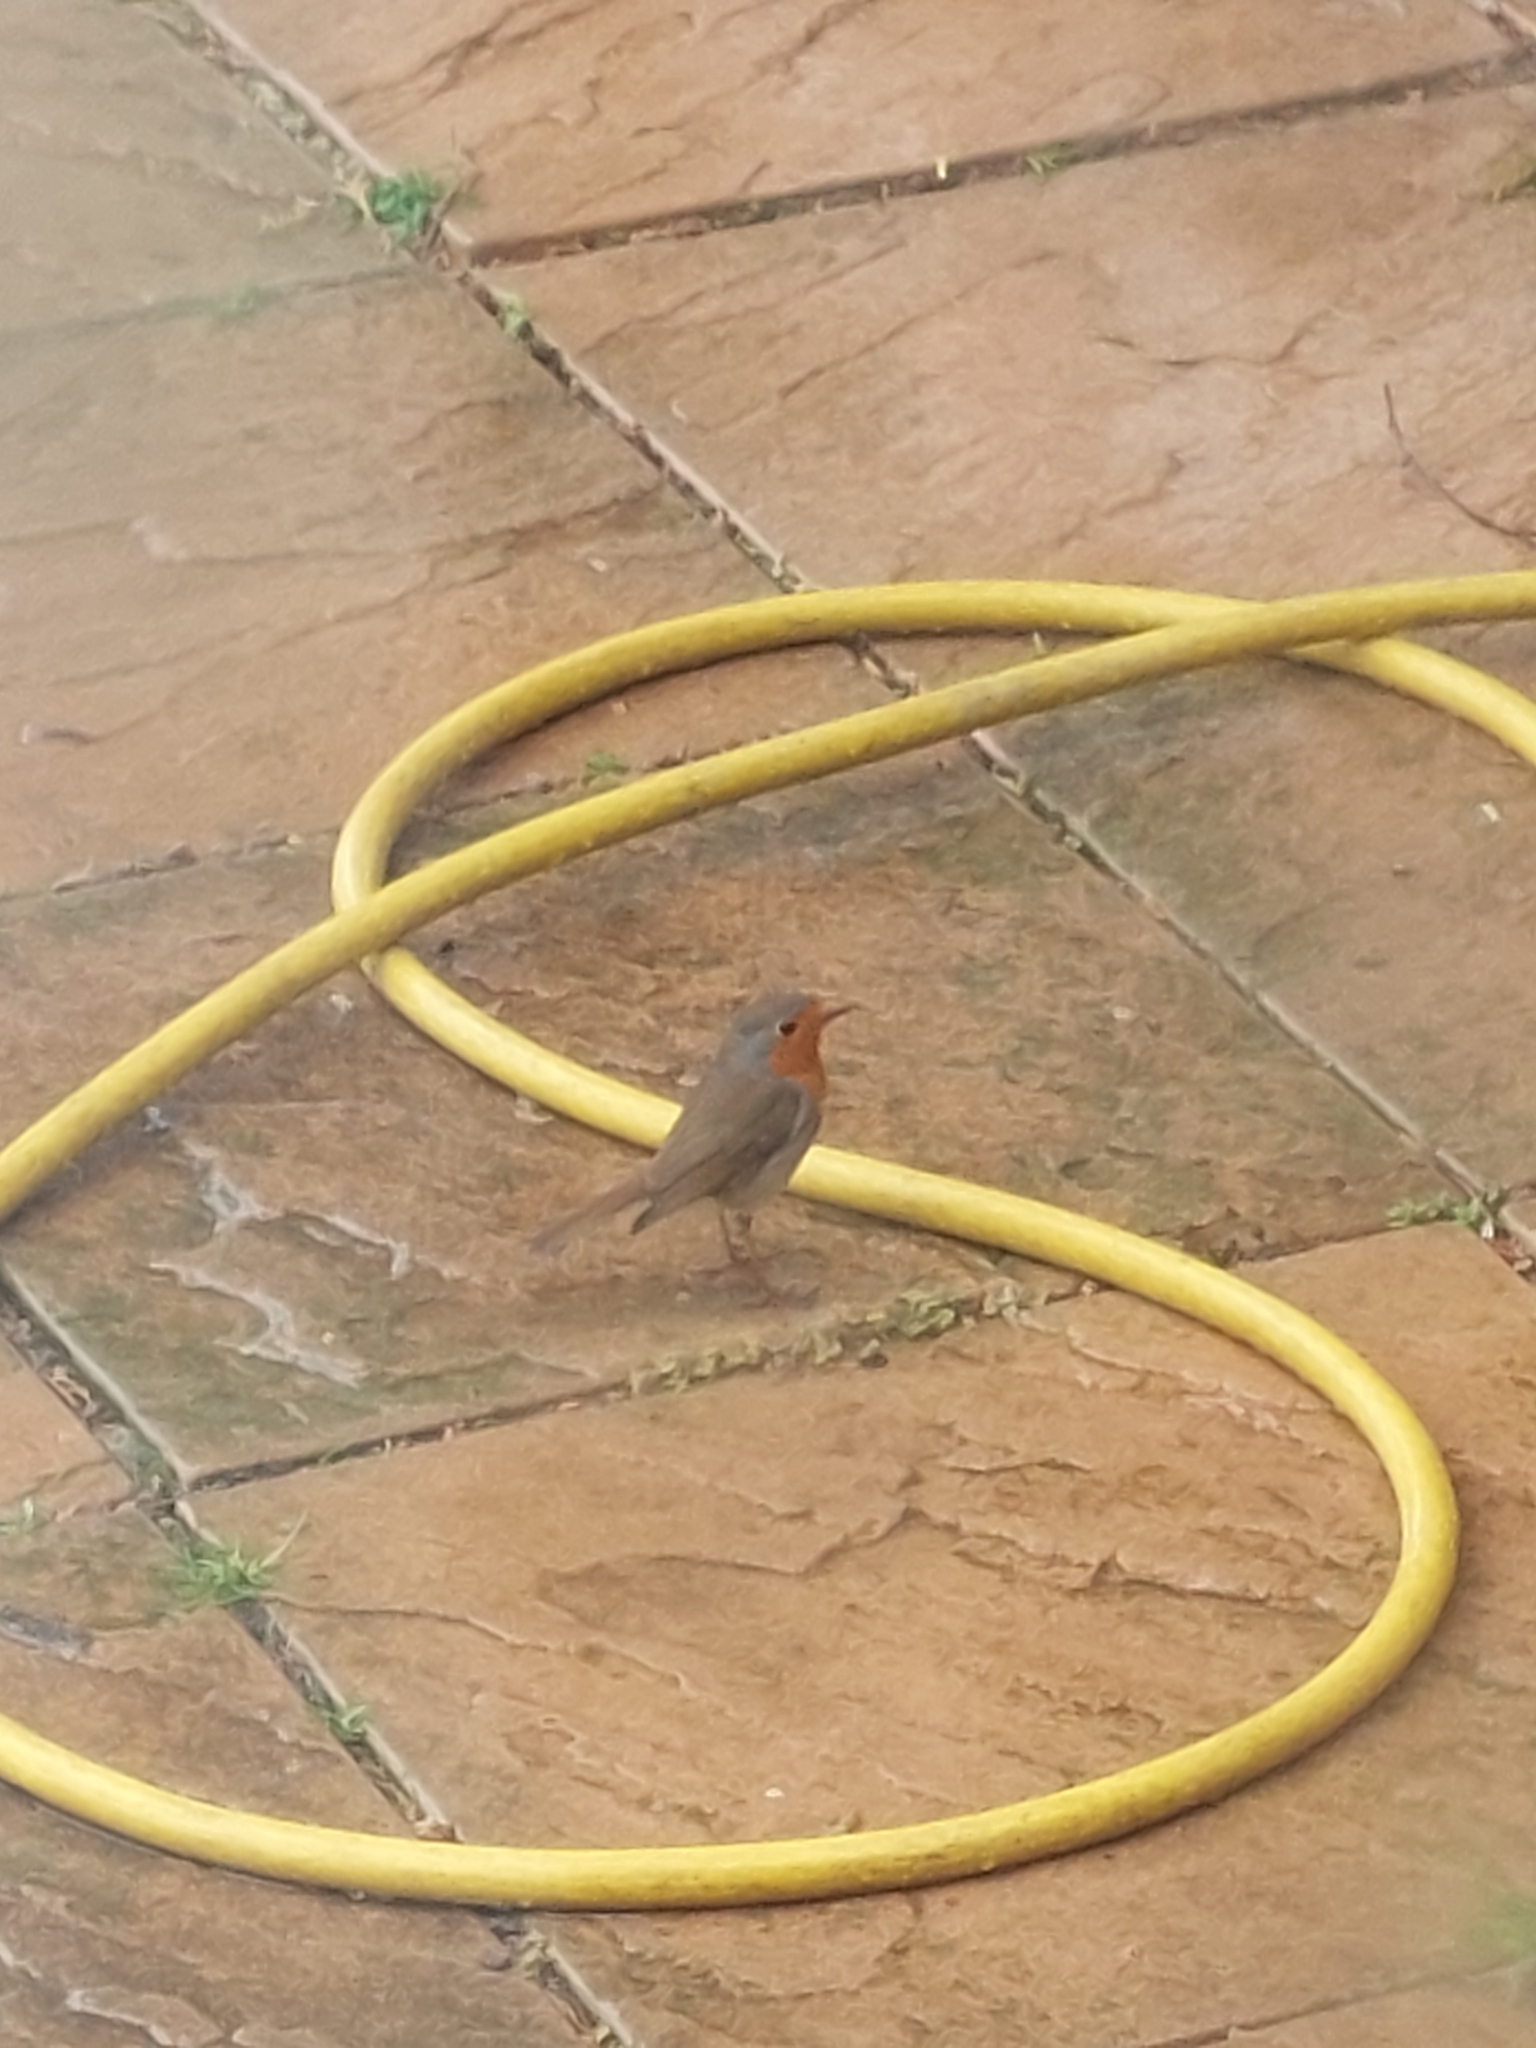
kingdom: Animalia
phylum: Chordata
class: Aves
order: Passeriformes
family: Muscicapidae
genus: Erithacus
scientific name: Erithacus rubecula
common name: European robin
